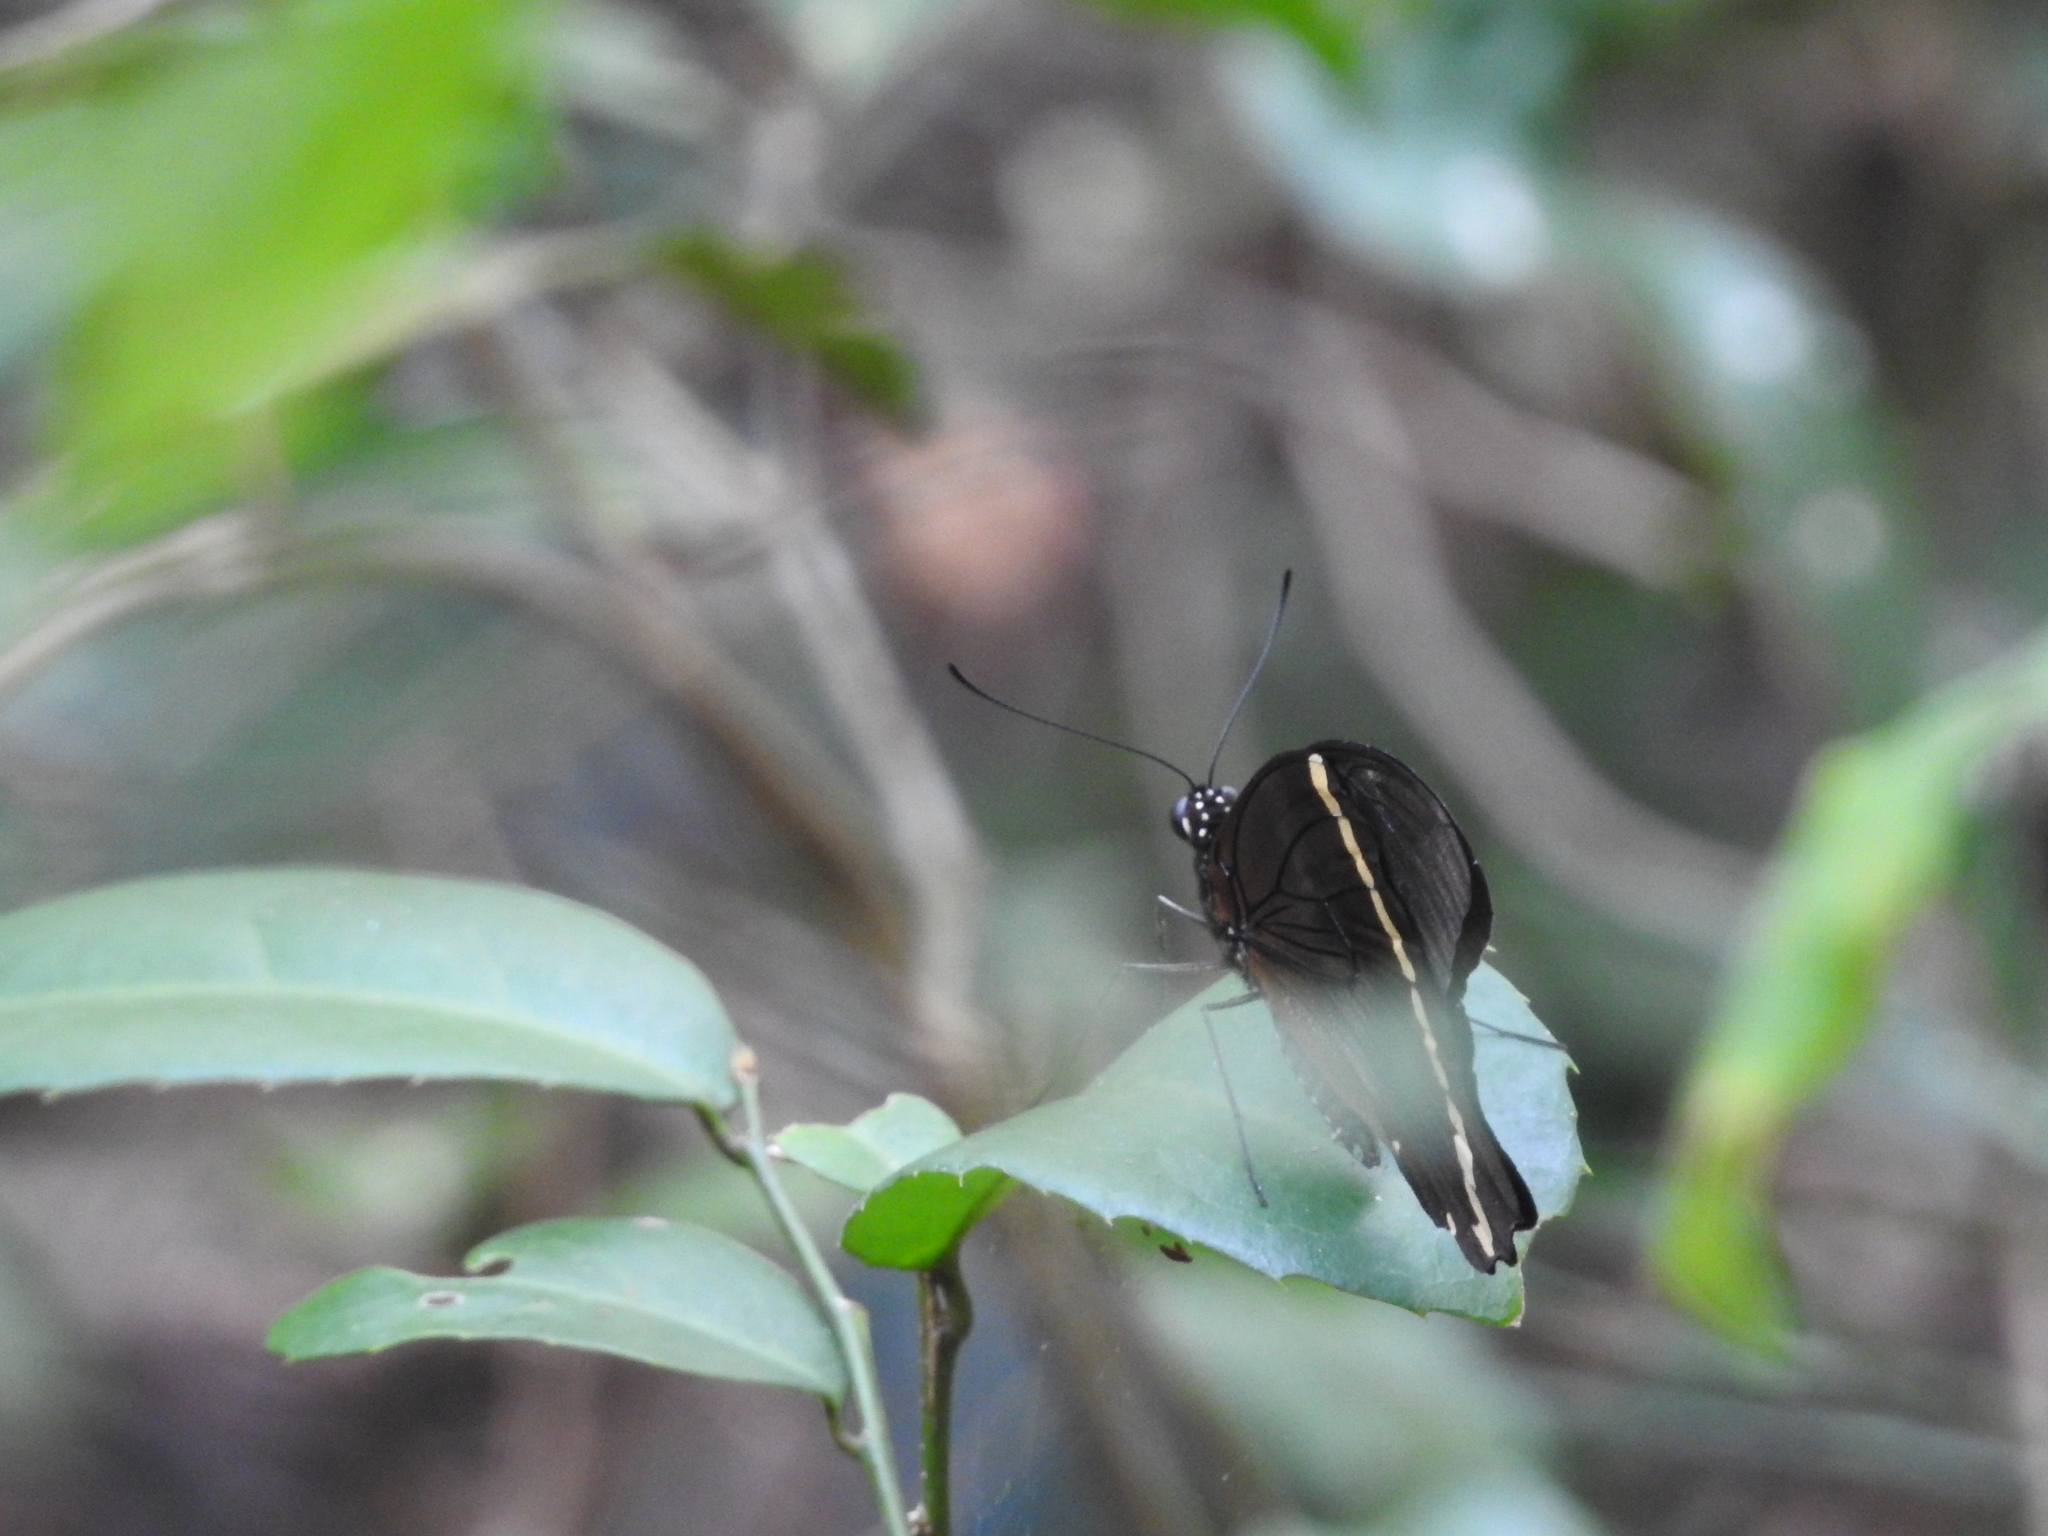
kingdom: Animalia
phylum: Arthropoda
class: Insecta
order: Lepidoptera
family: Papilionidae
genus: Papilio
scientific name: Papilio nireus
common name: Greenbanded swallowtail
